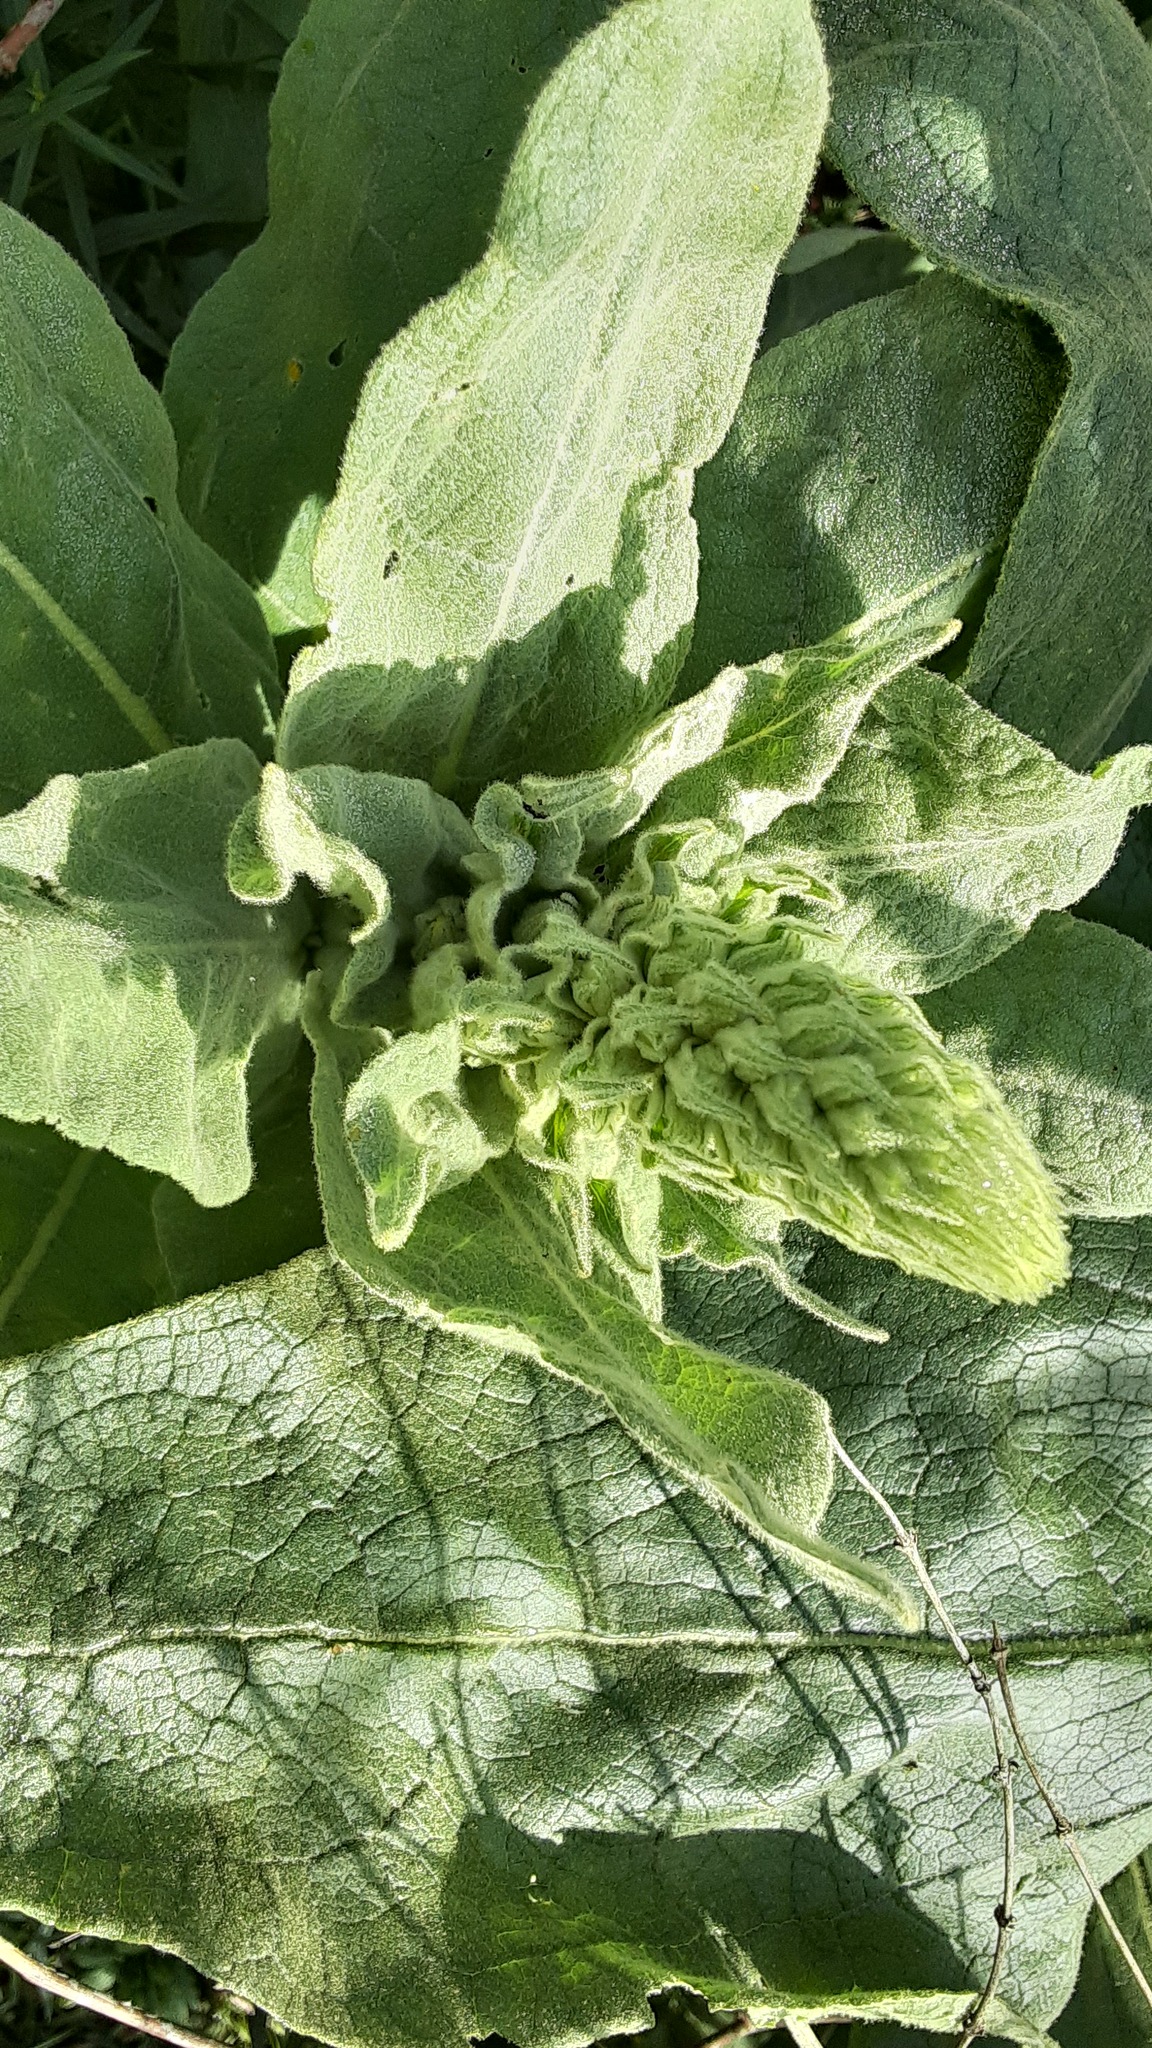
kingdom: Plantae
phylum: Tracheophyta
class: Magnoliopsida
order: Lamiales
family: Scrophulariaceae
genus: Verbascum
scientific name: Verbascum thapsus
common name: Common mullein
